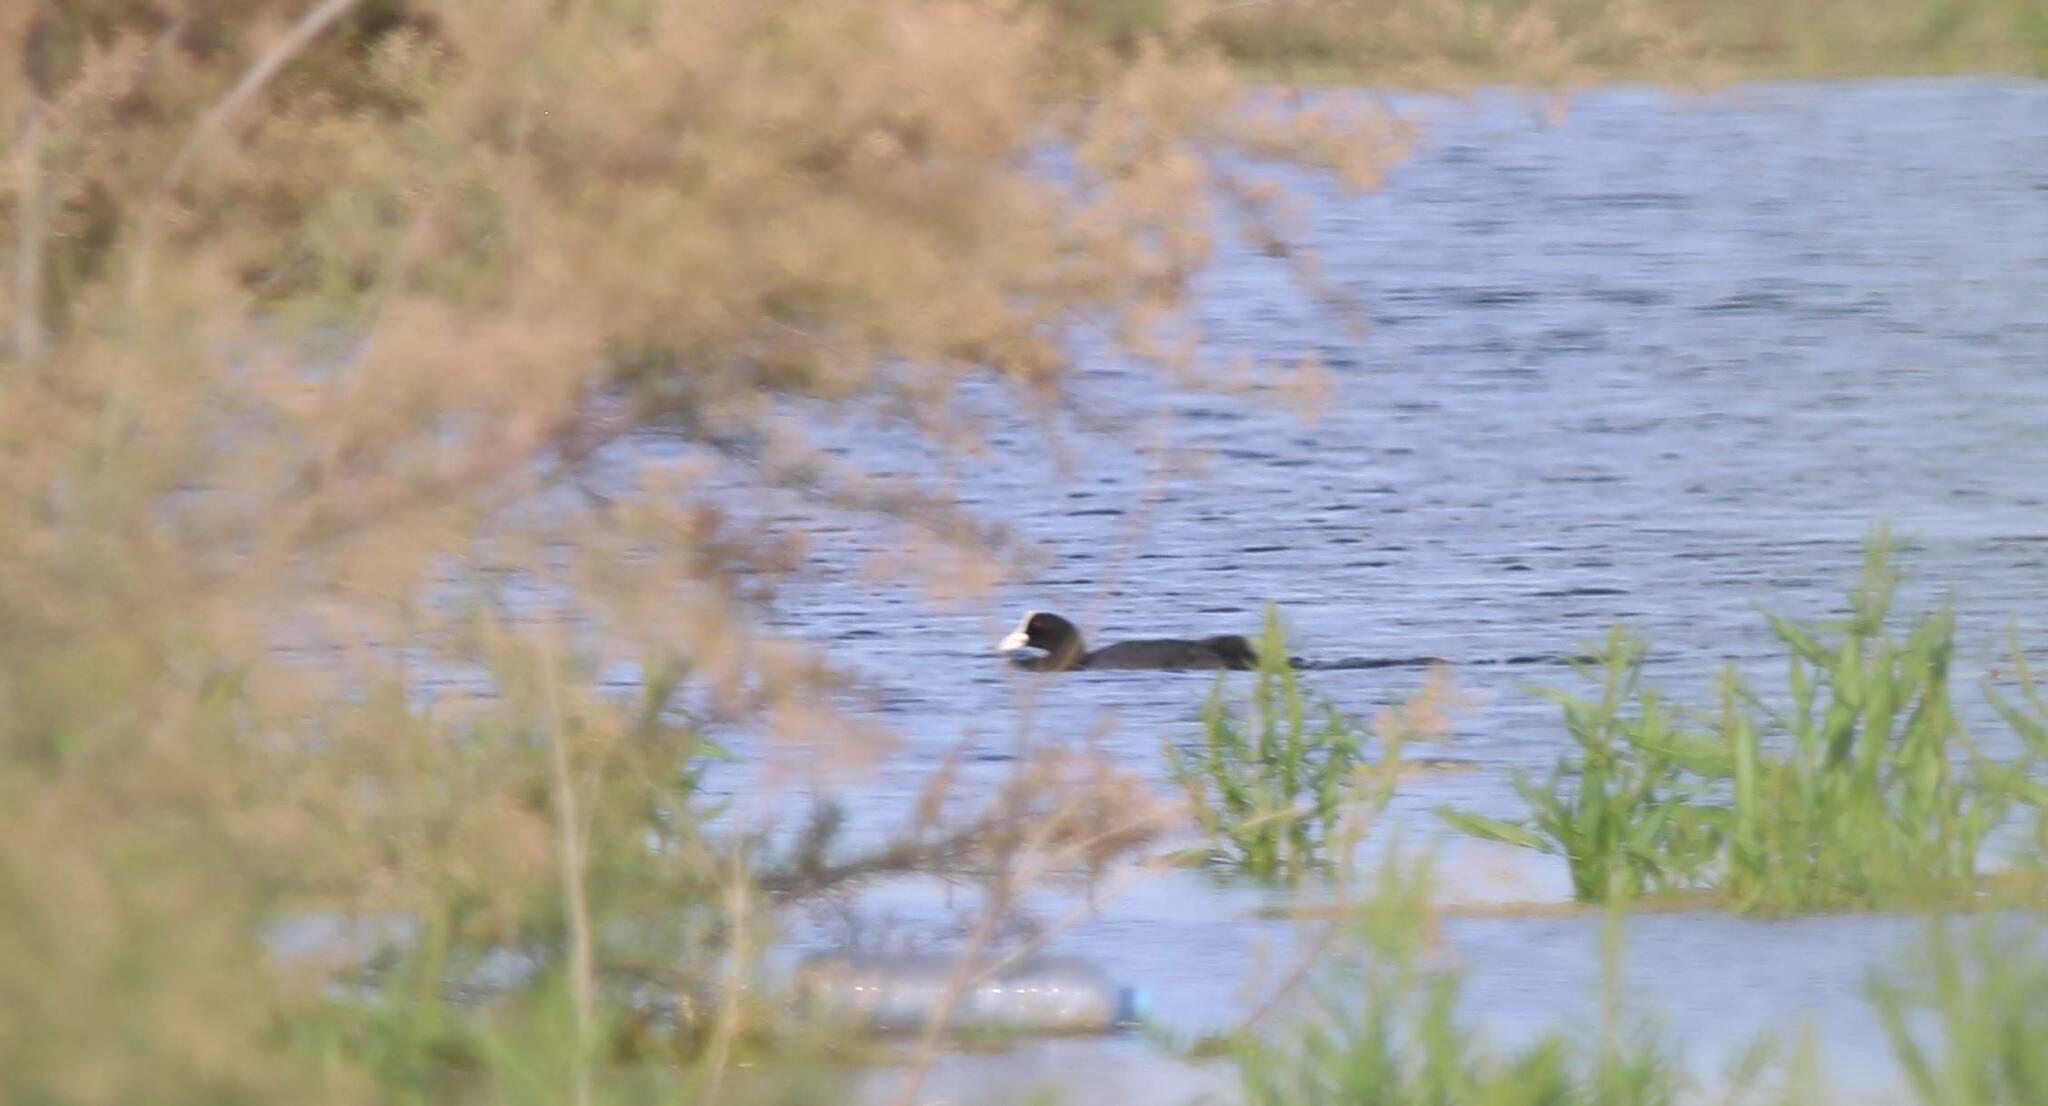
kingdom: Animalia
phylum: Chordata
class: Aves
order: Gruiformes
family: Rallidae
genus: Fulica
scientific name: Fulica atra
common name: Eurasian coot
